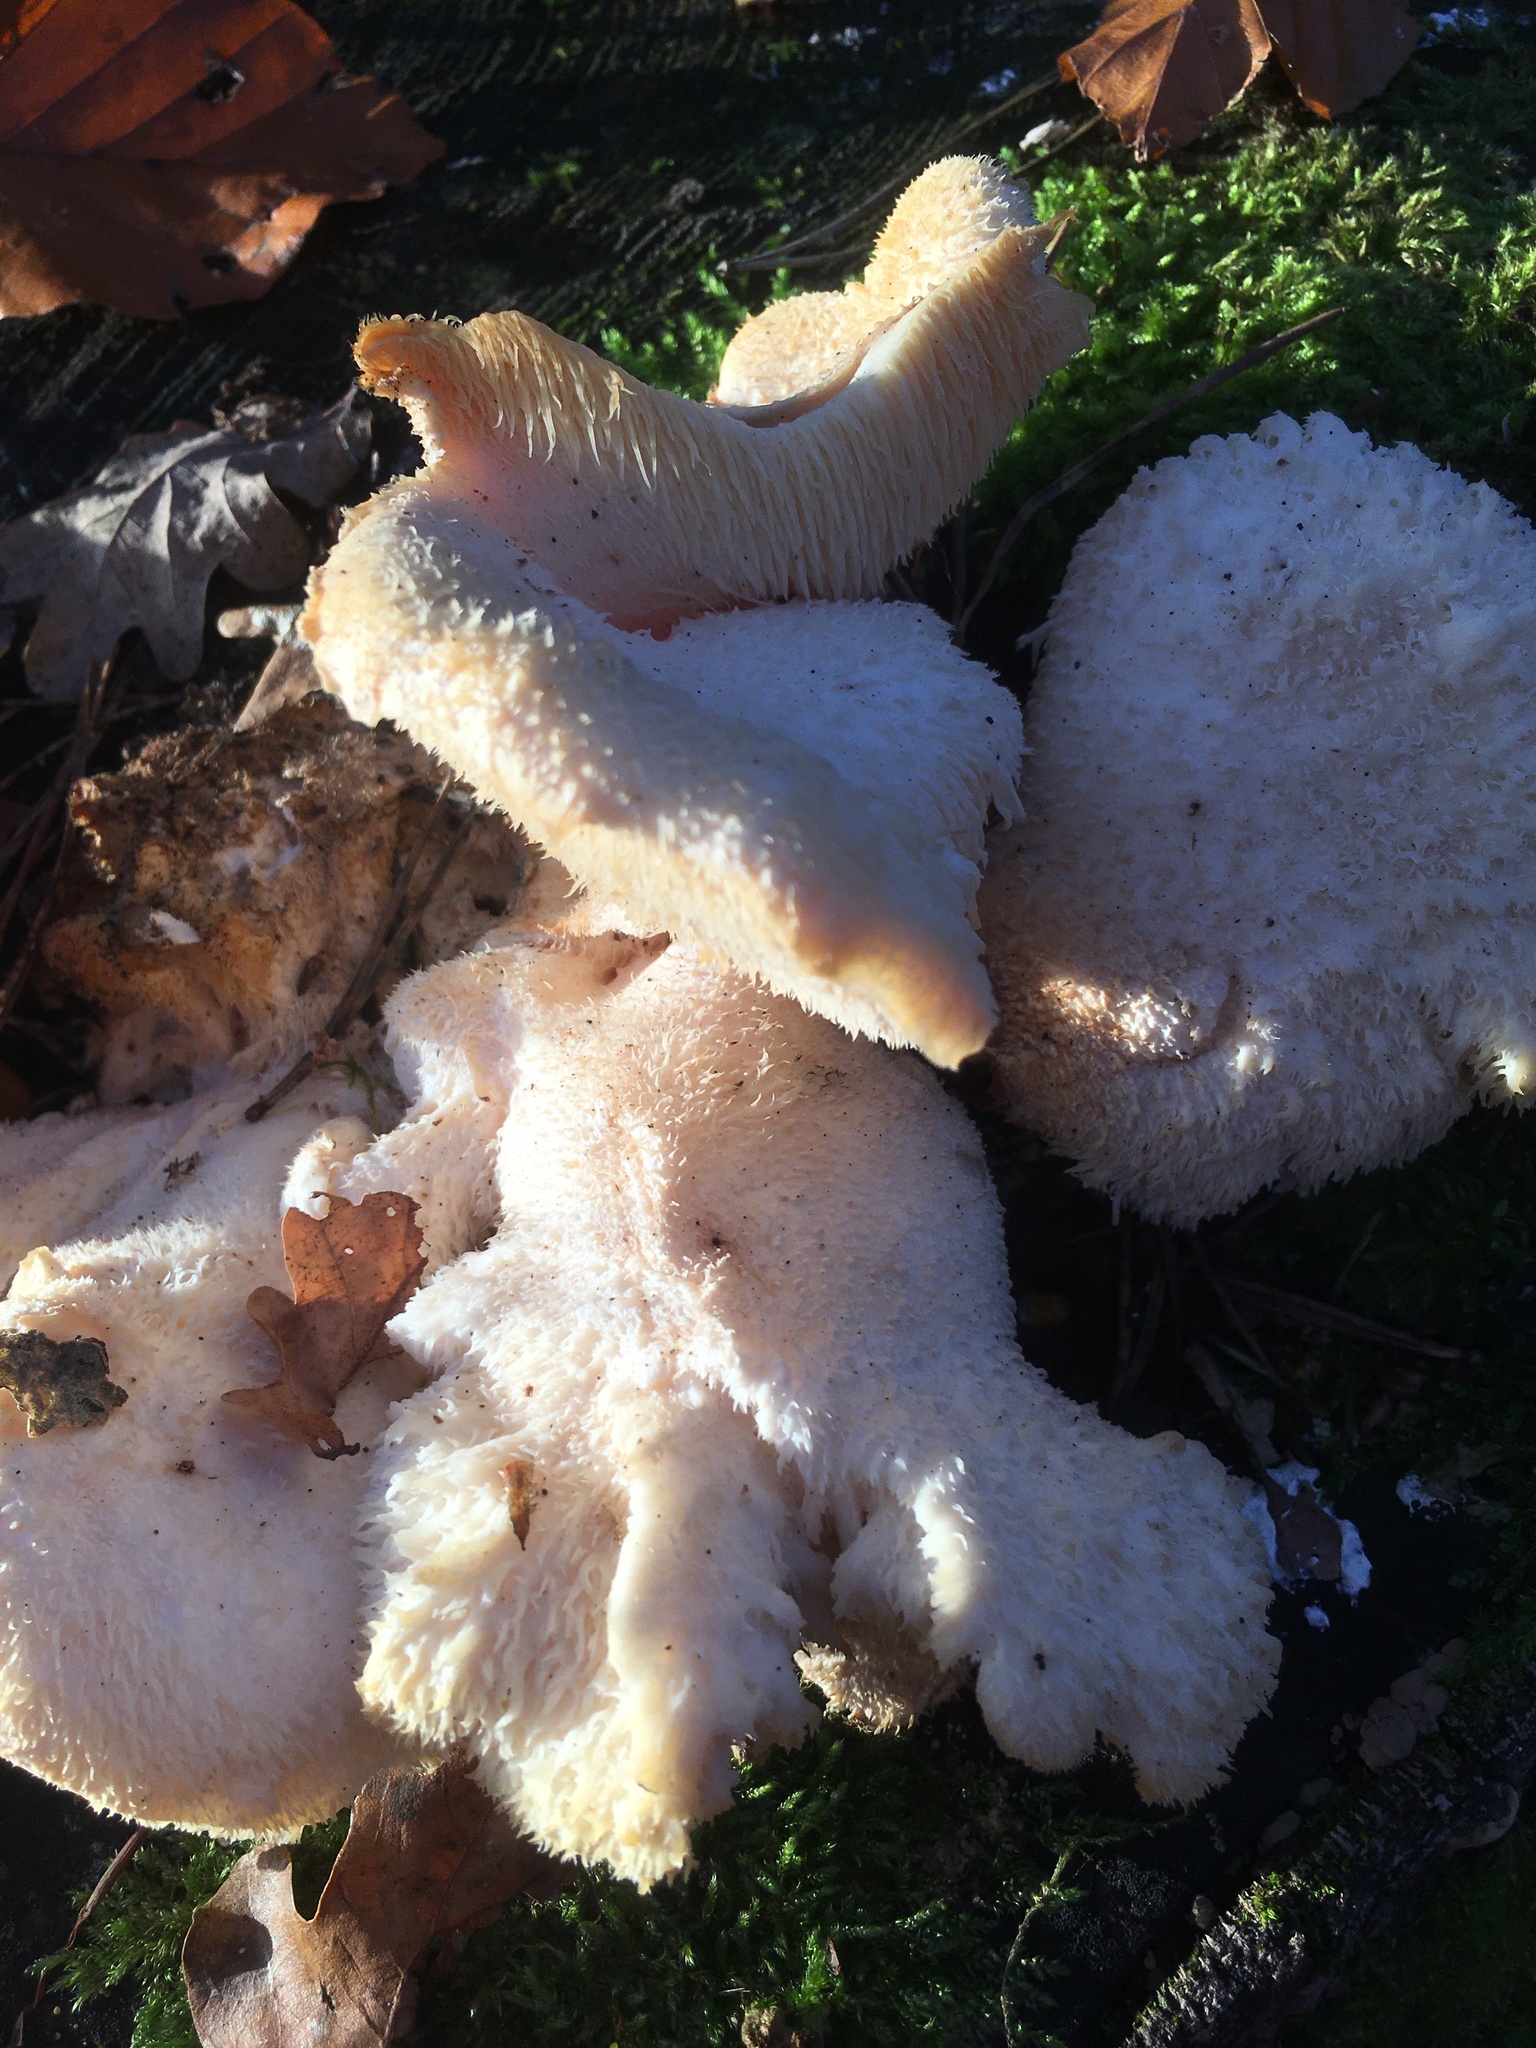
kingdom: Fungi
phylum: Basidiomycota
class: Agaricomycetes
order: Russulales
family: Hericiaceae
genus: Hericium
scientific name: Hericium cirrhatum
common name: Tiered tooth
